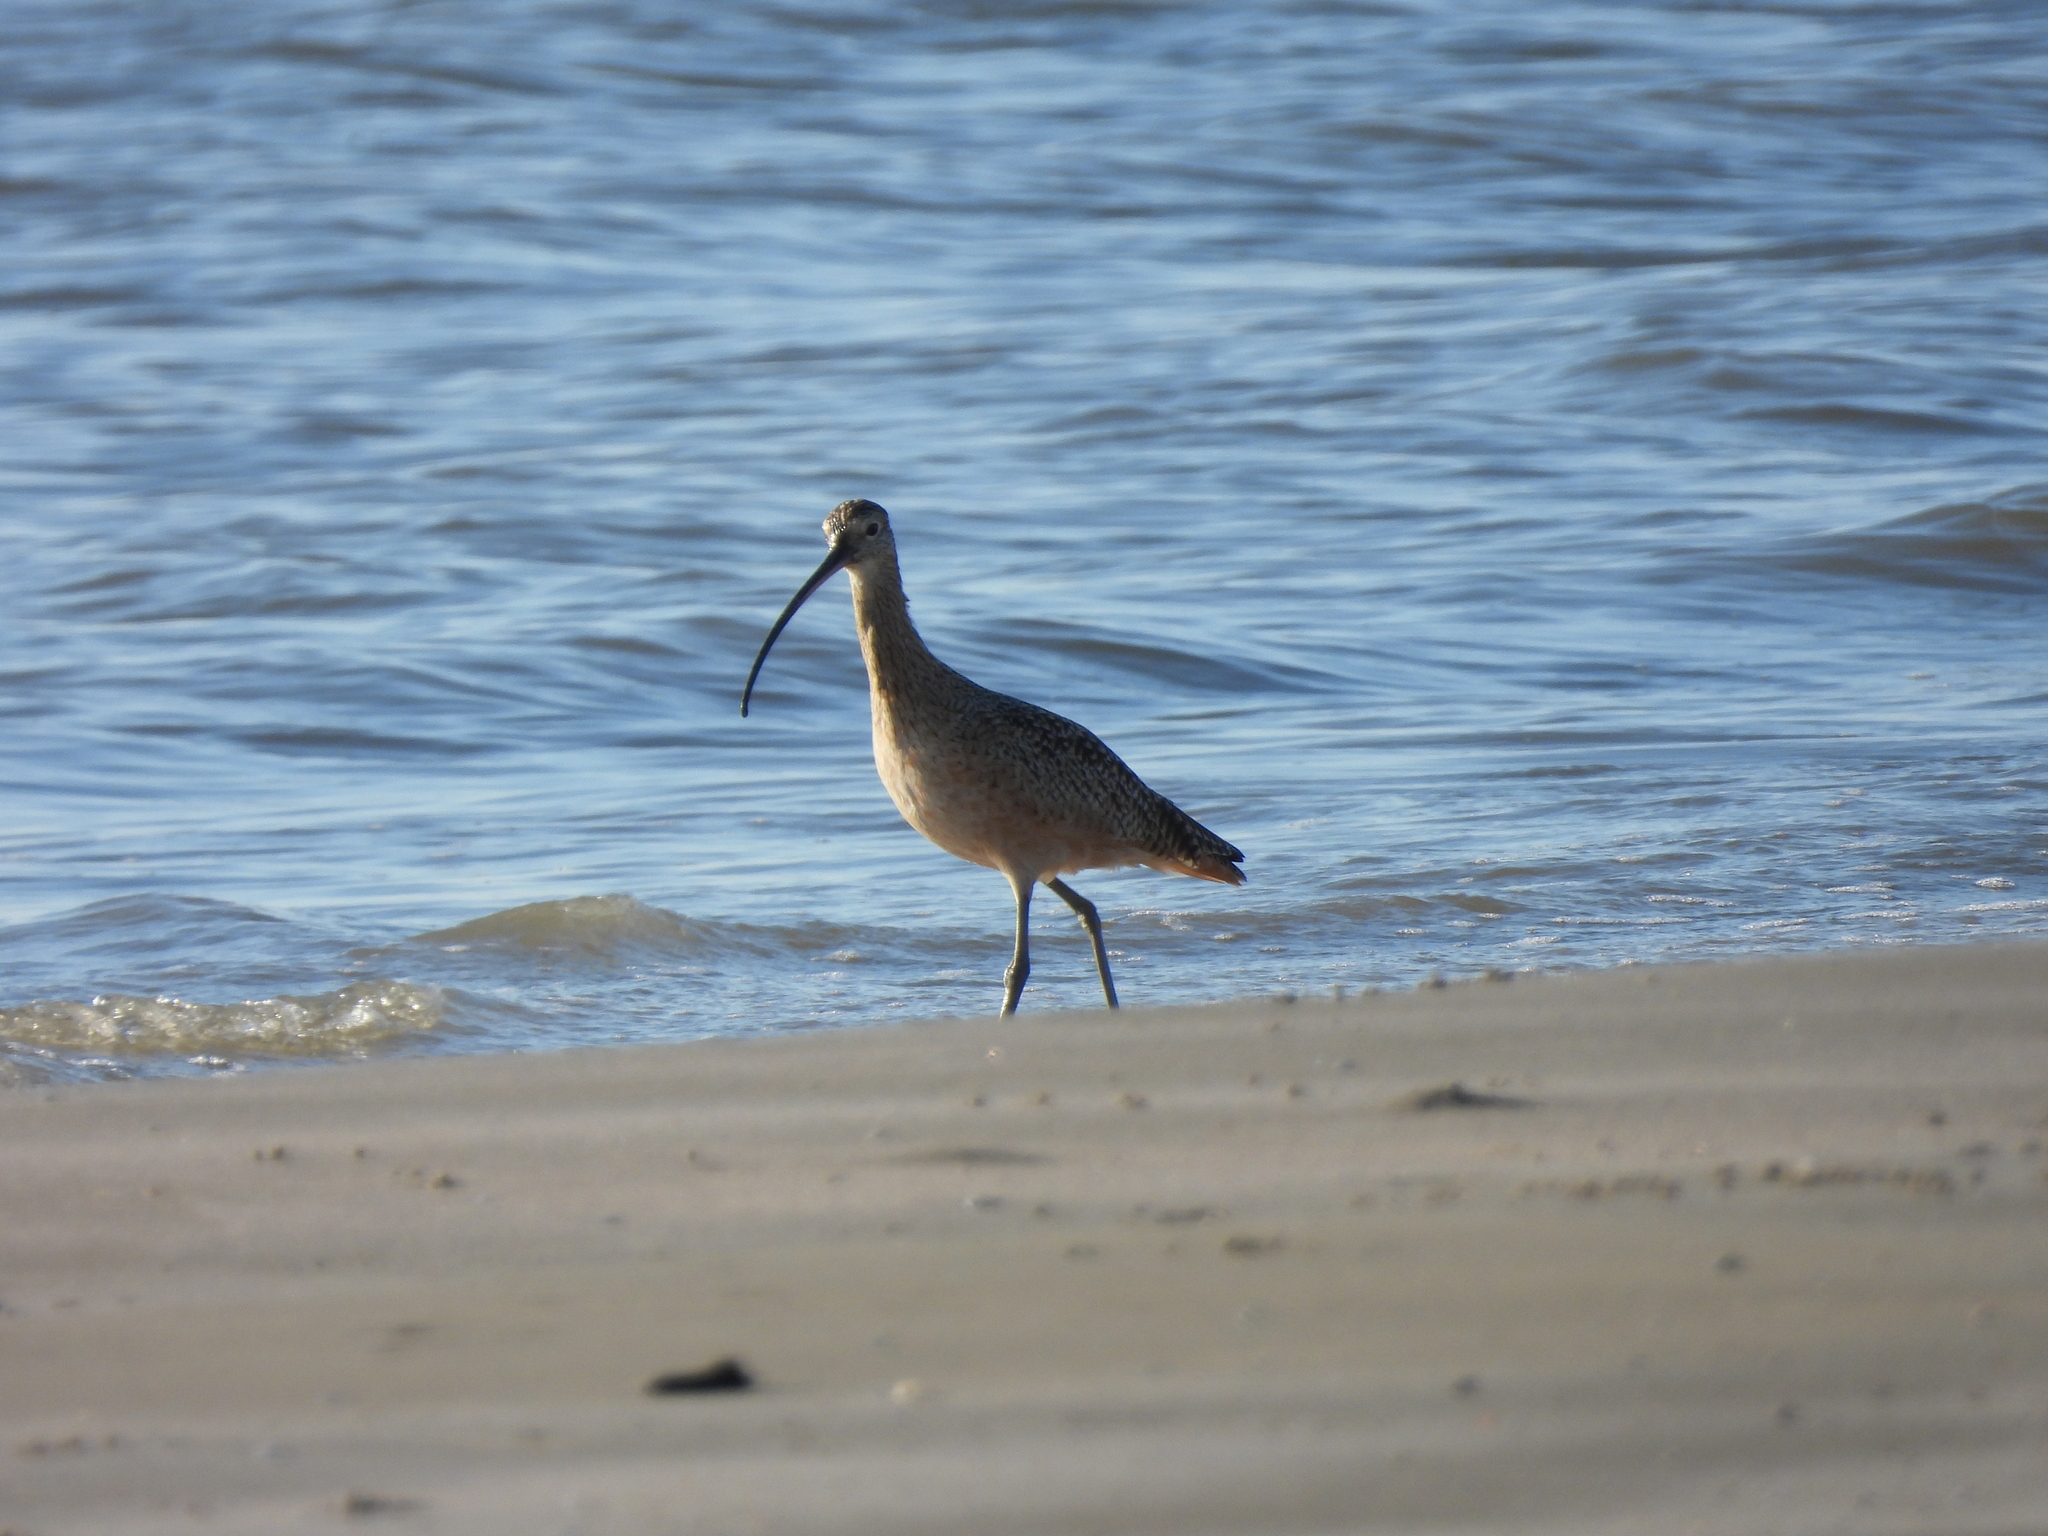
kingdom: Animalia
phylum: Chordata
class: Aves
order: Charadriiformes
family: Scolopacidae
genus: Numenius
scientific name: Numenius americanus
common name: Long-billed curlew
